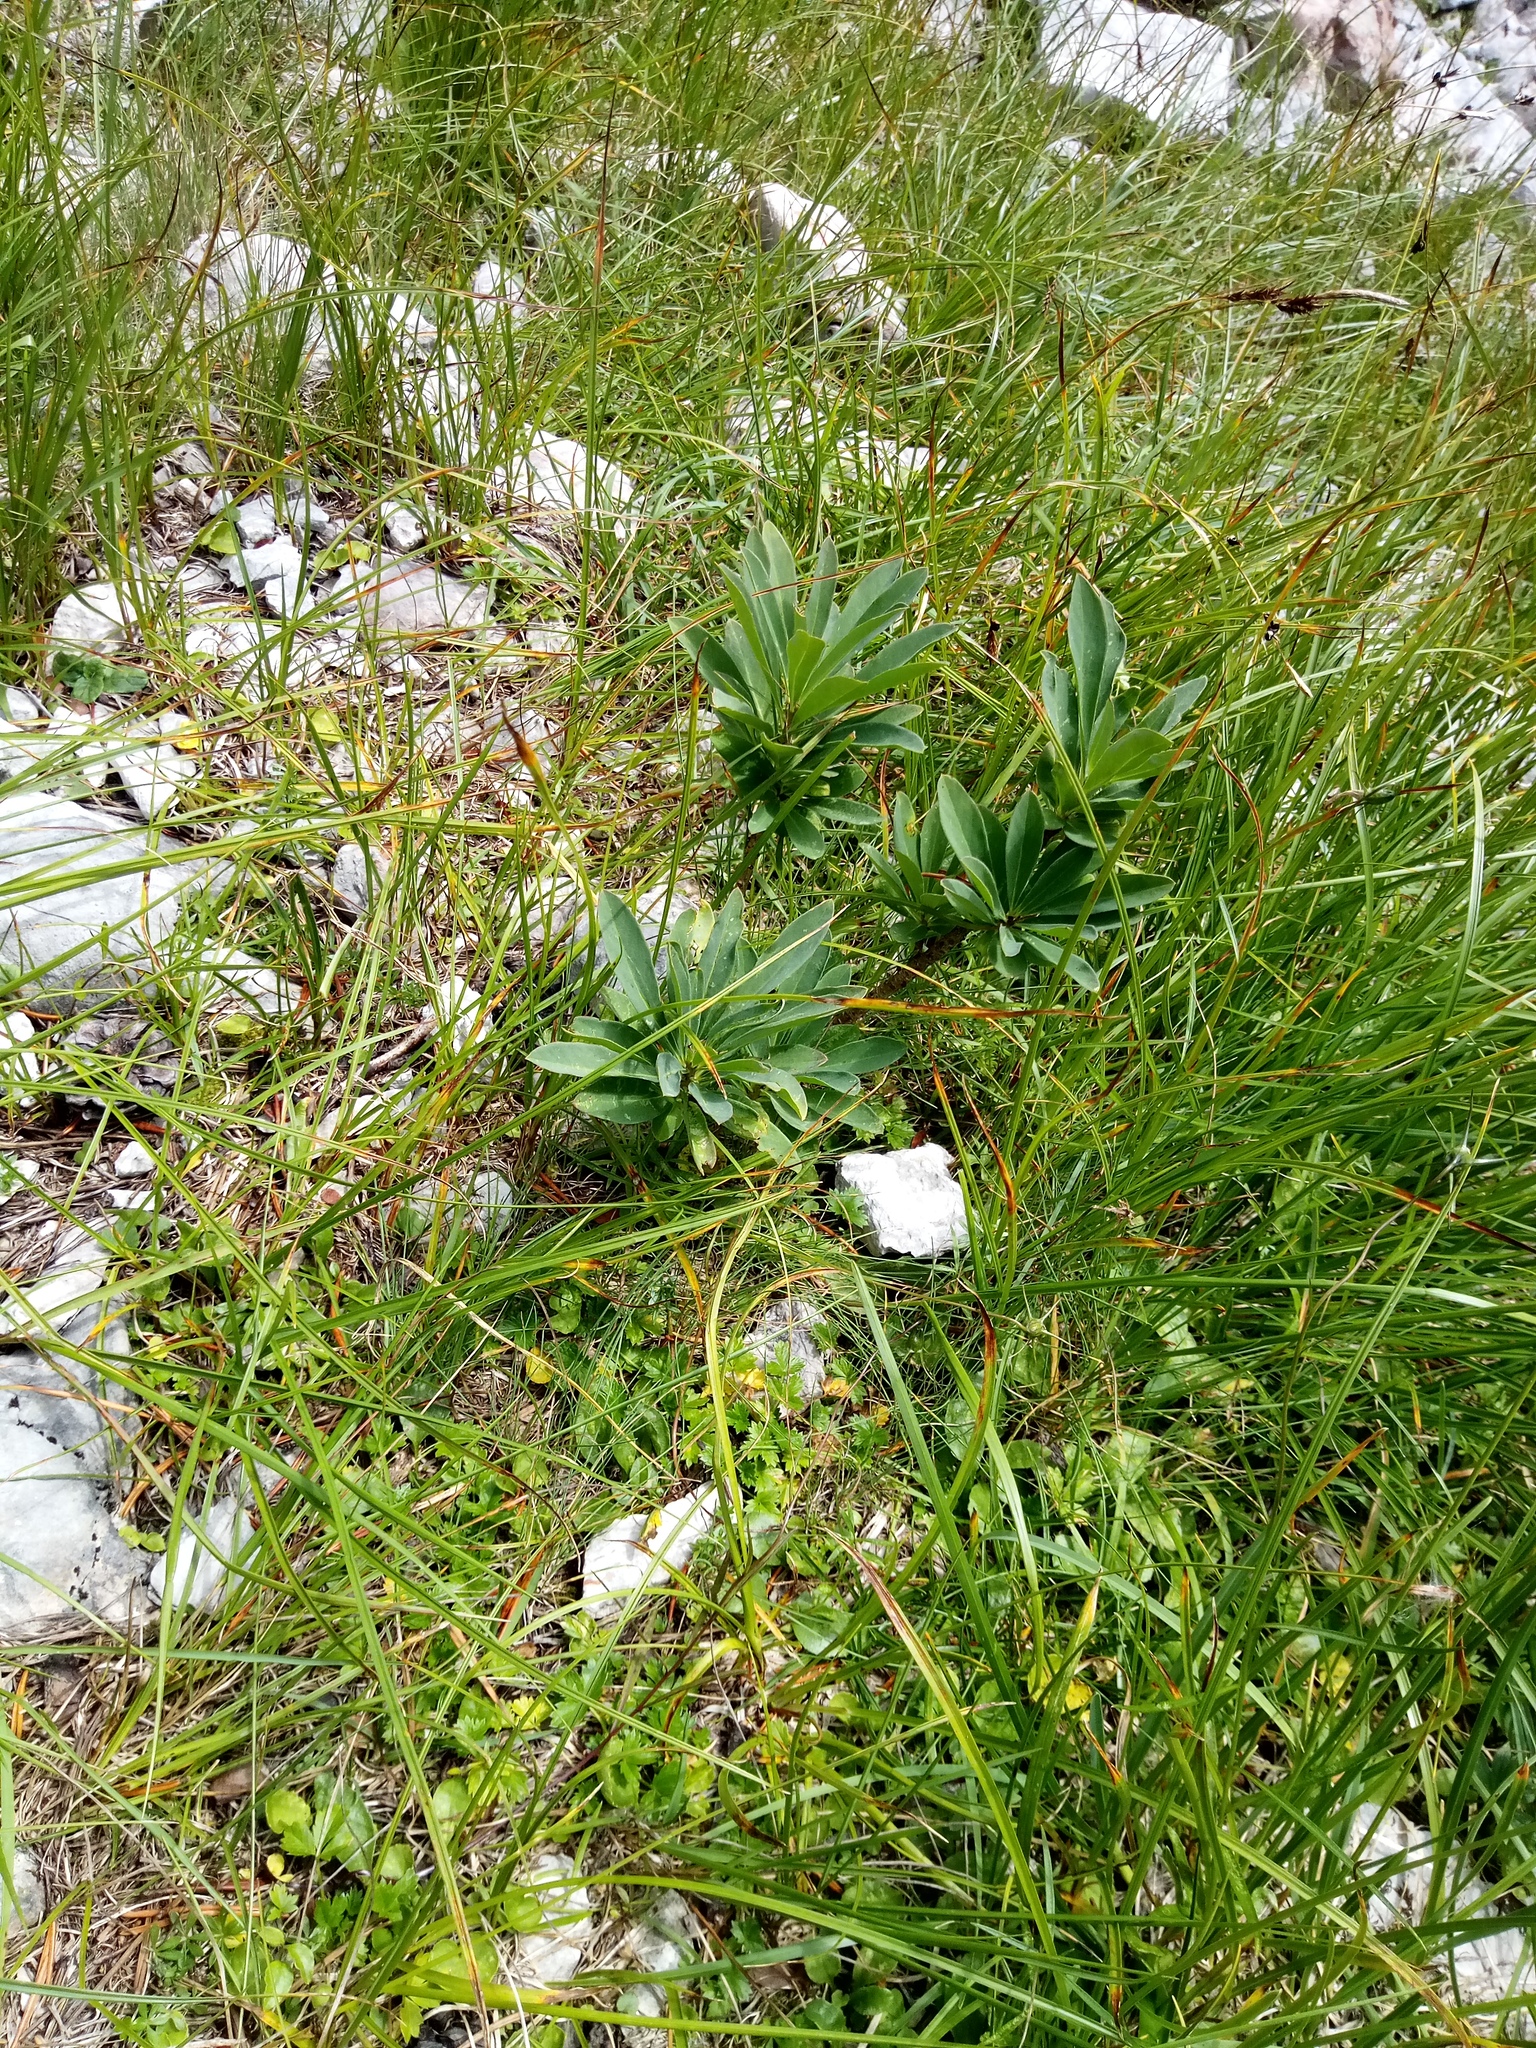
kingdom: Plantae
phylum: Tracheophyta
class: Magnoliopsida
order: Malvales
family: Thymelaeaceae
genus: Daphne
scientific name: Daphne mezereum
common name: Mezereon
